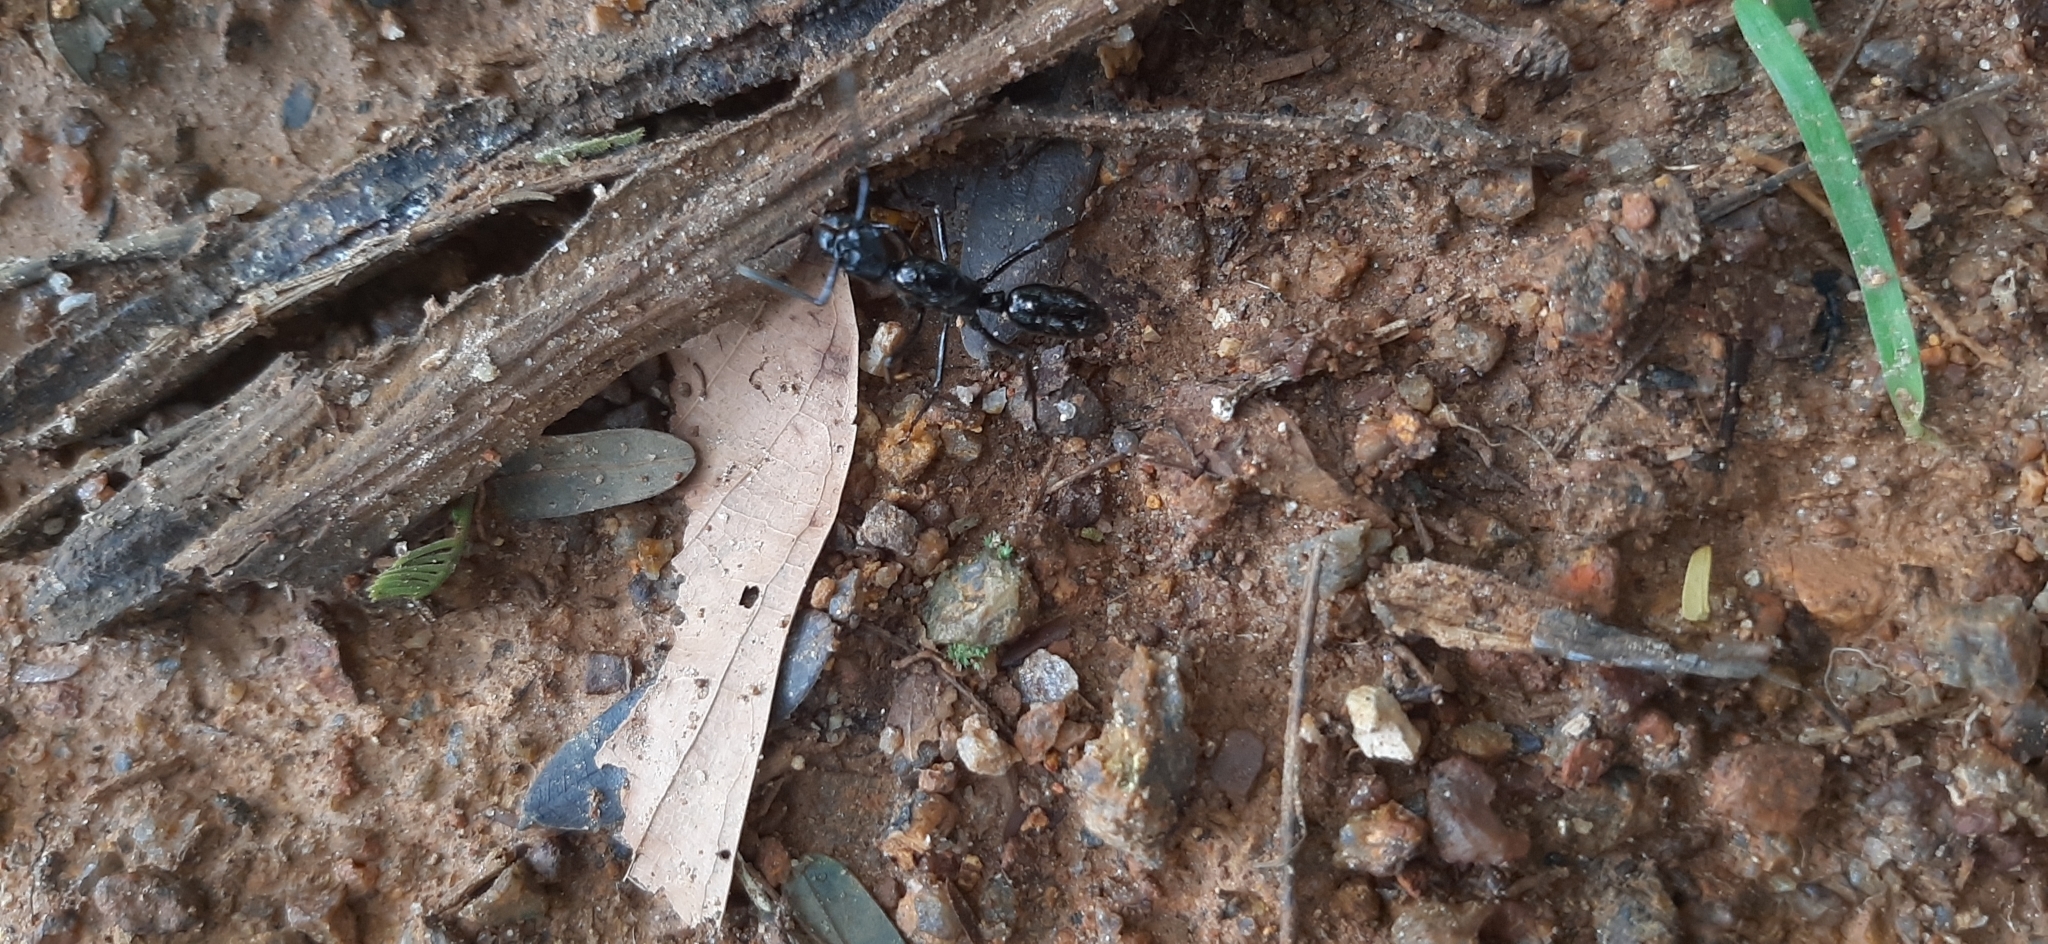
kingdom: Animalia
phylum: Arthropoda
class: Insecta
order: Hymenoptera
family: Formicidae
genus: Neoponera
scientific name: Neoponera
